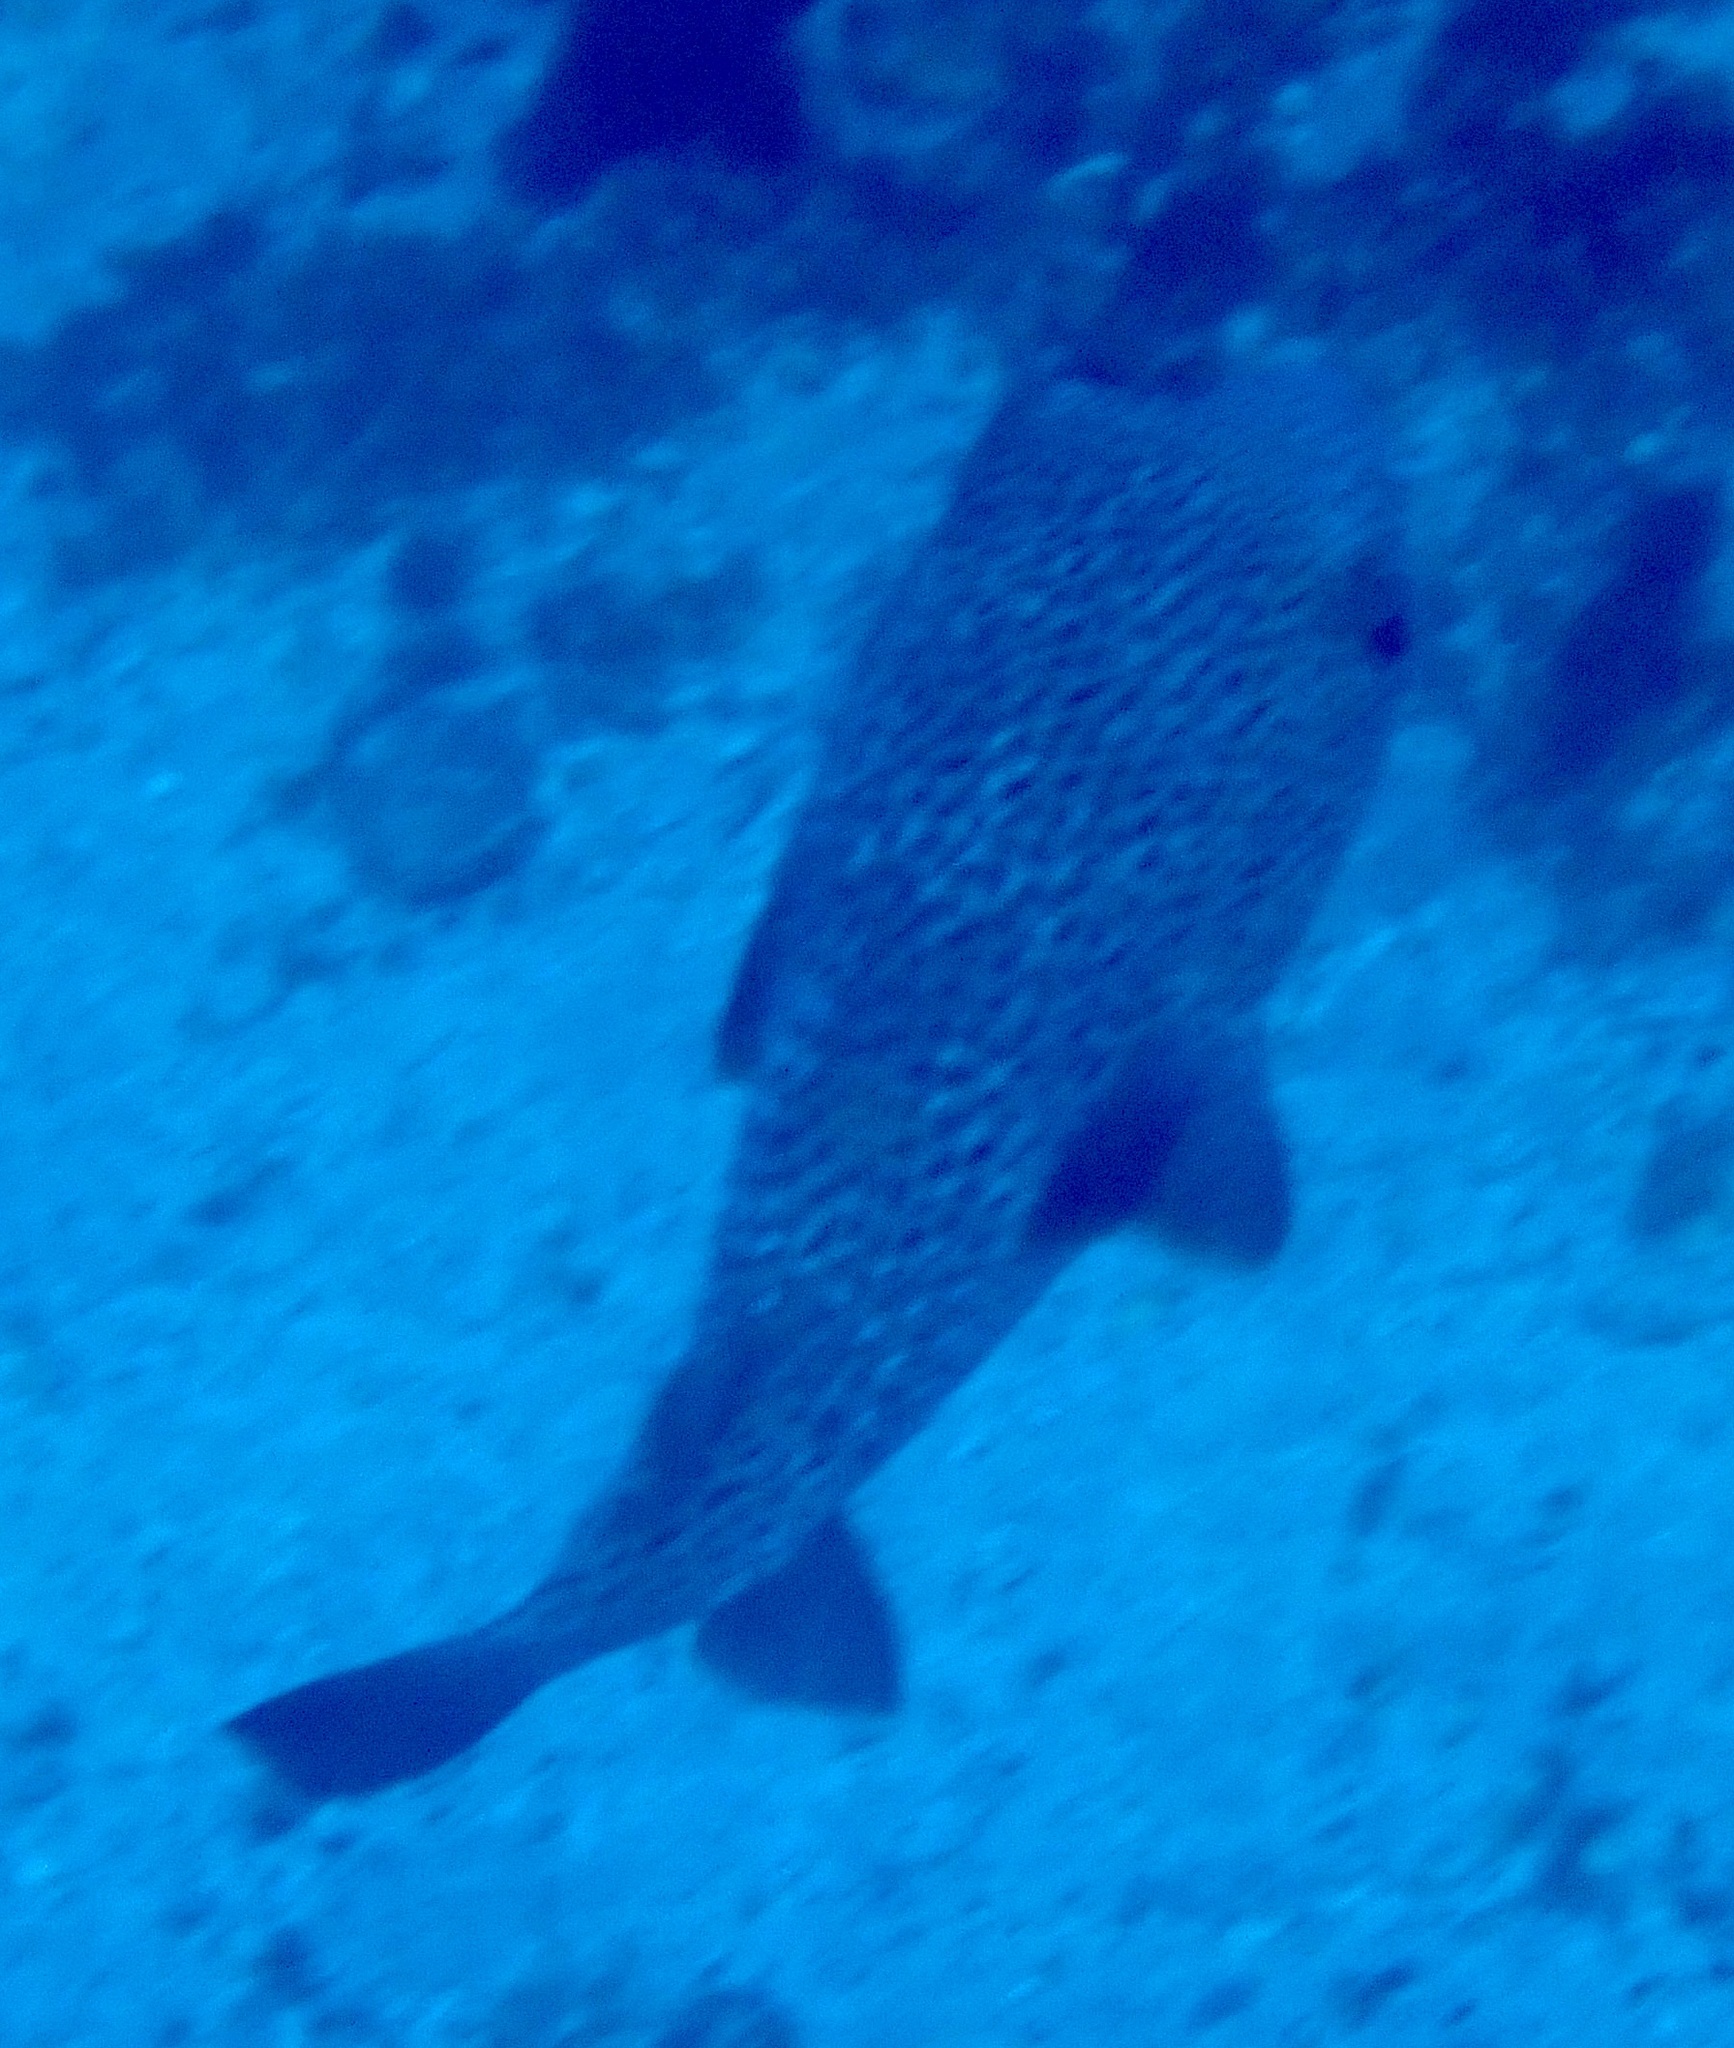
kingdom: Animalia
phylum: Chordata
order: Tetraodontiformes
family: Diodontidae
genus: Diodon
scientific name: Diodon hystrix
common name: Giant porcupinefish
